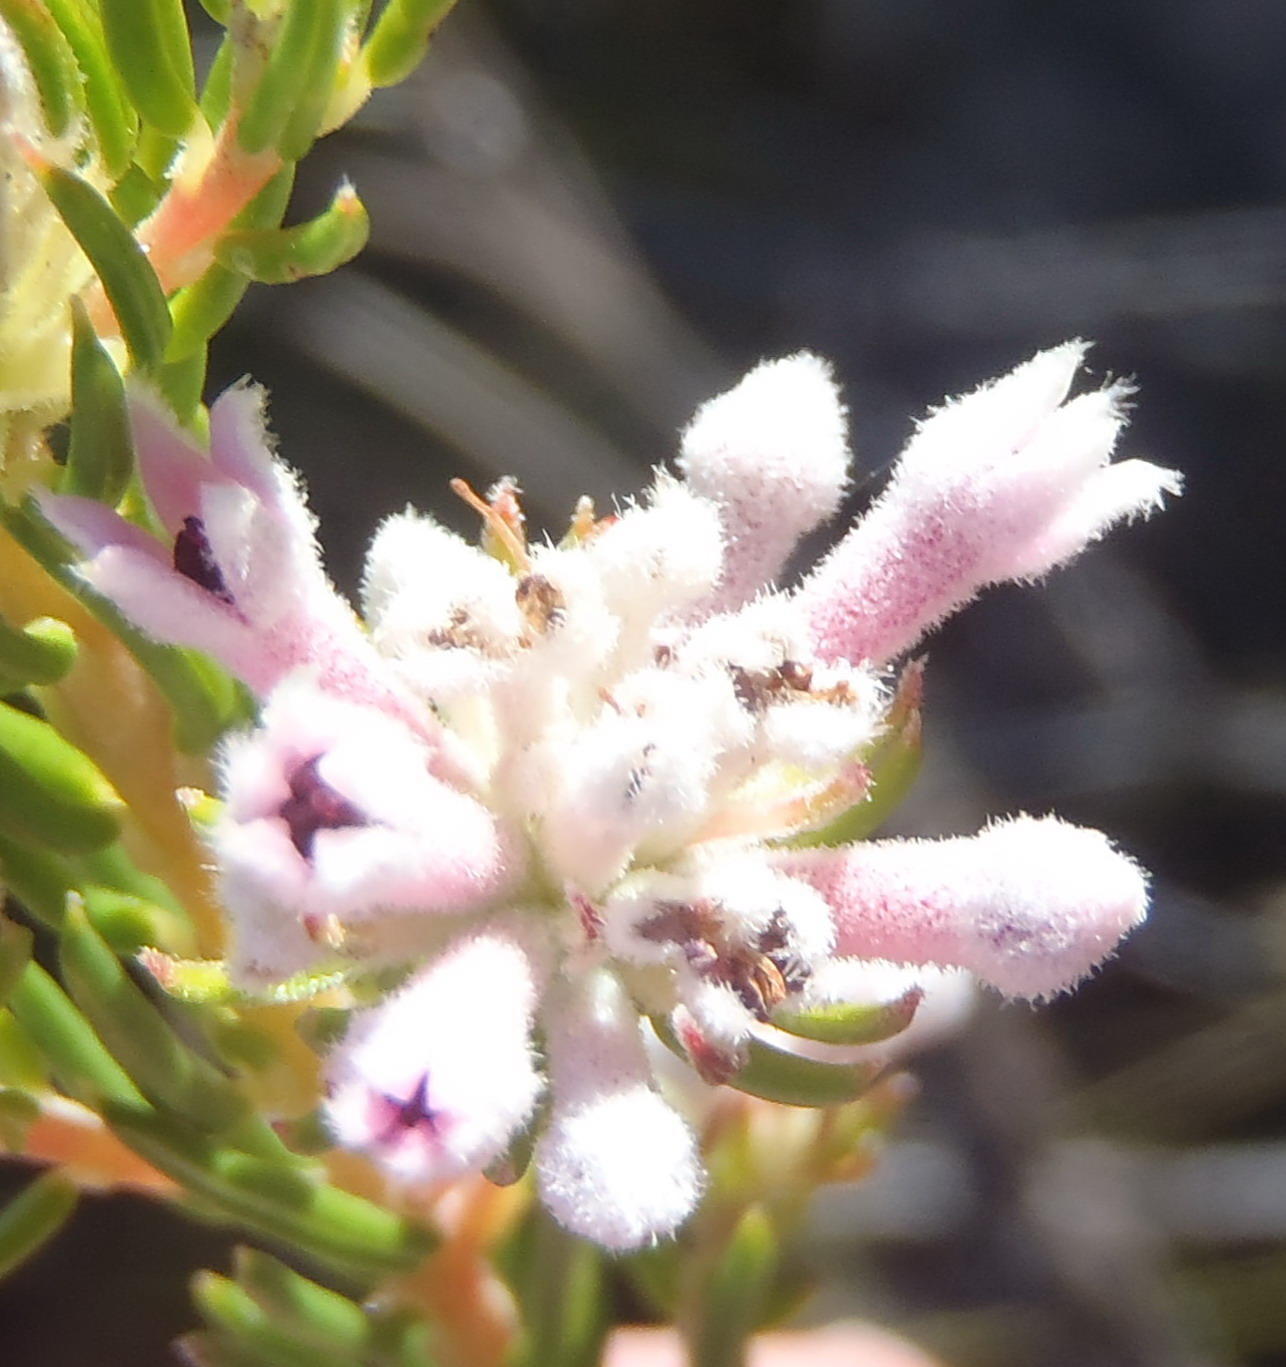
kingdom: Plantae
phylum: Tracheophyta
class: Magnoliopsida
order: Rosales
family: Rhamnaceae
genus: Phylica
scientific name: Phylica lachneaeoides
